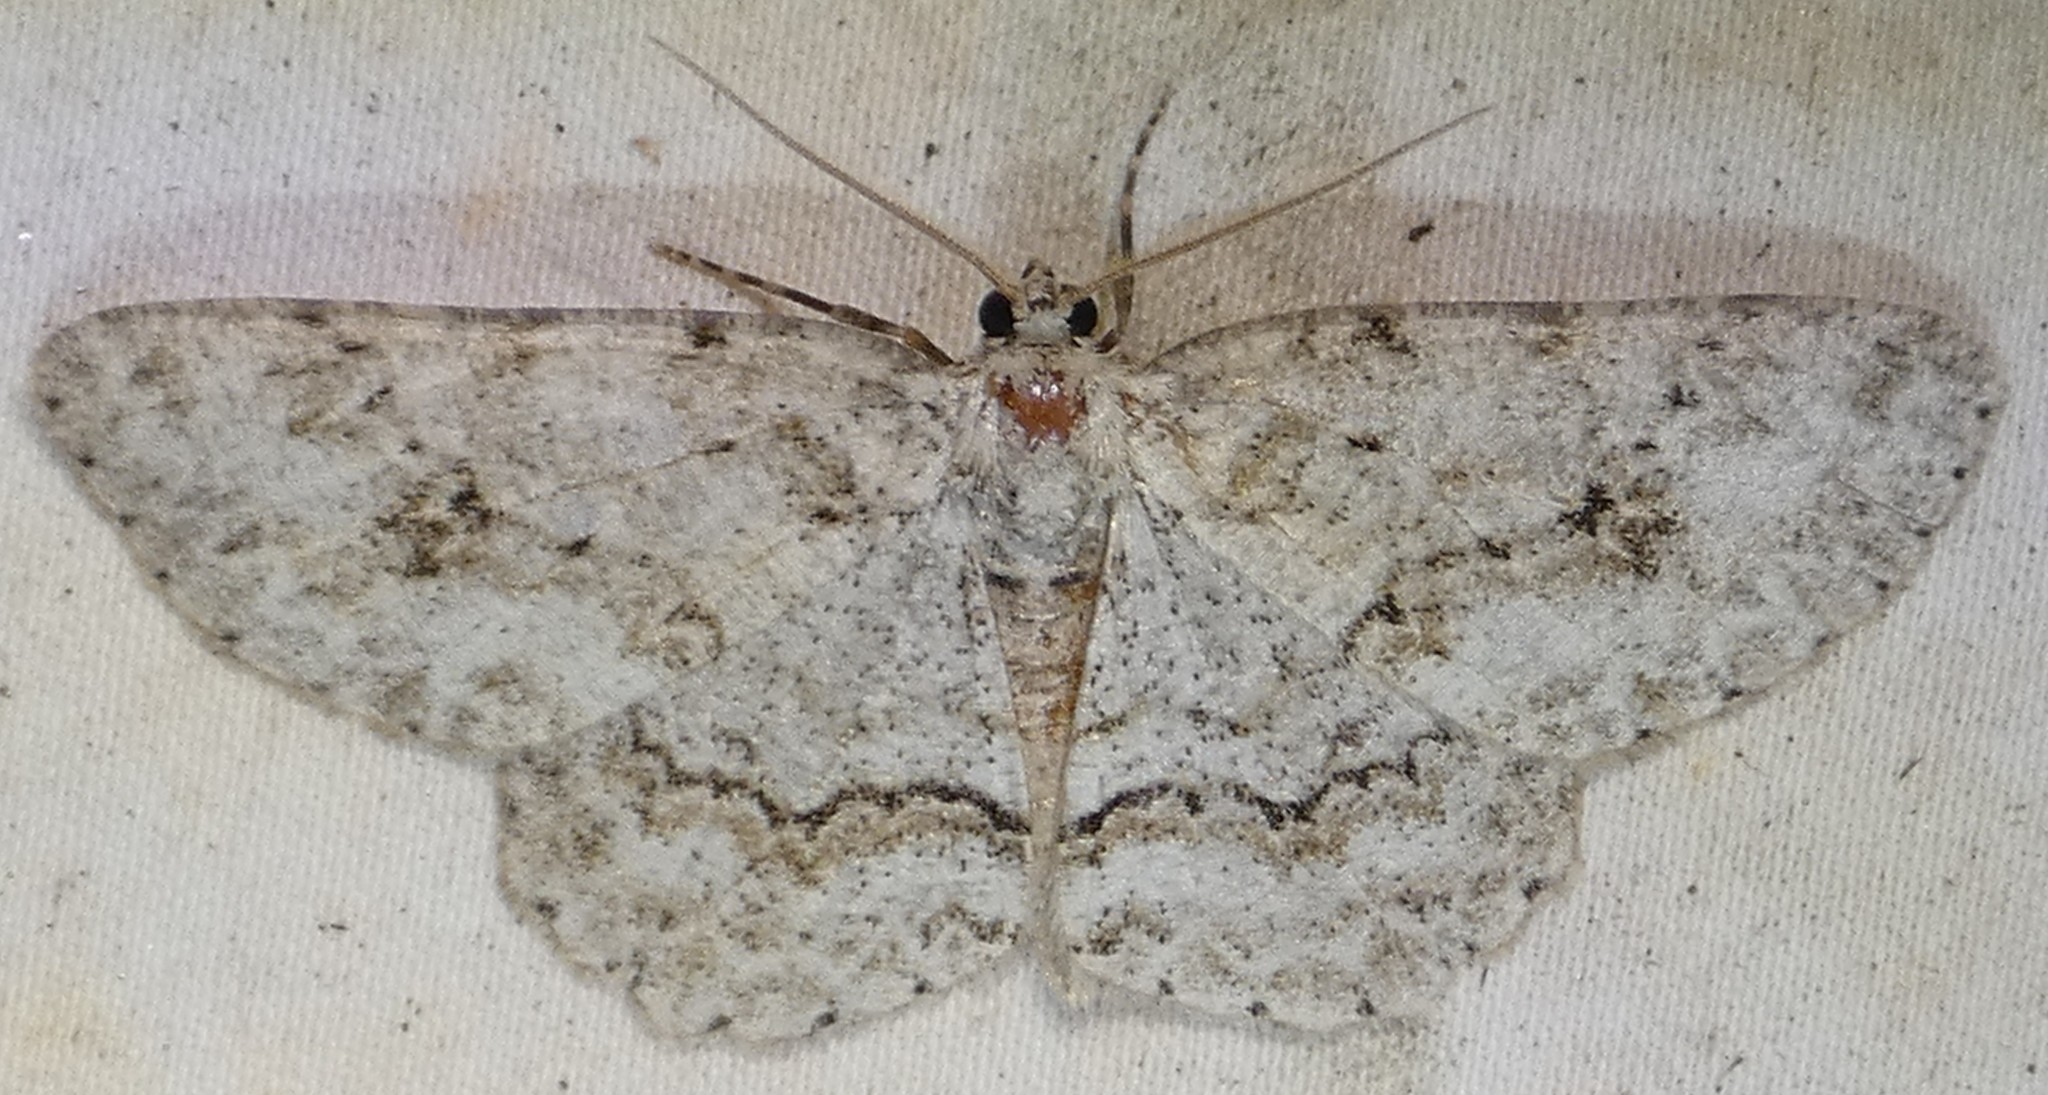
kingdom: Animalia
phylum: Arthropoda
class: Insecta
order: Lepidoptera
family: Geometridae
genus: Ectropis
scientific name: Ectropis crepuscularia
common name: Engrailed
